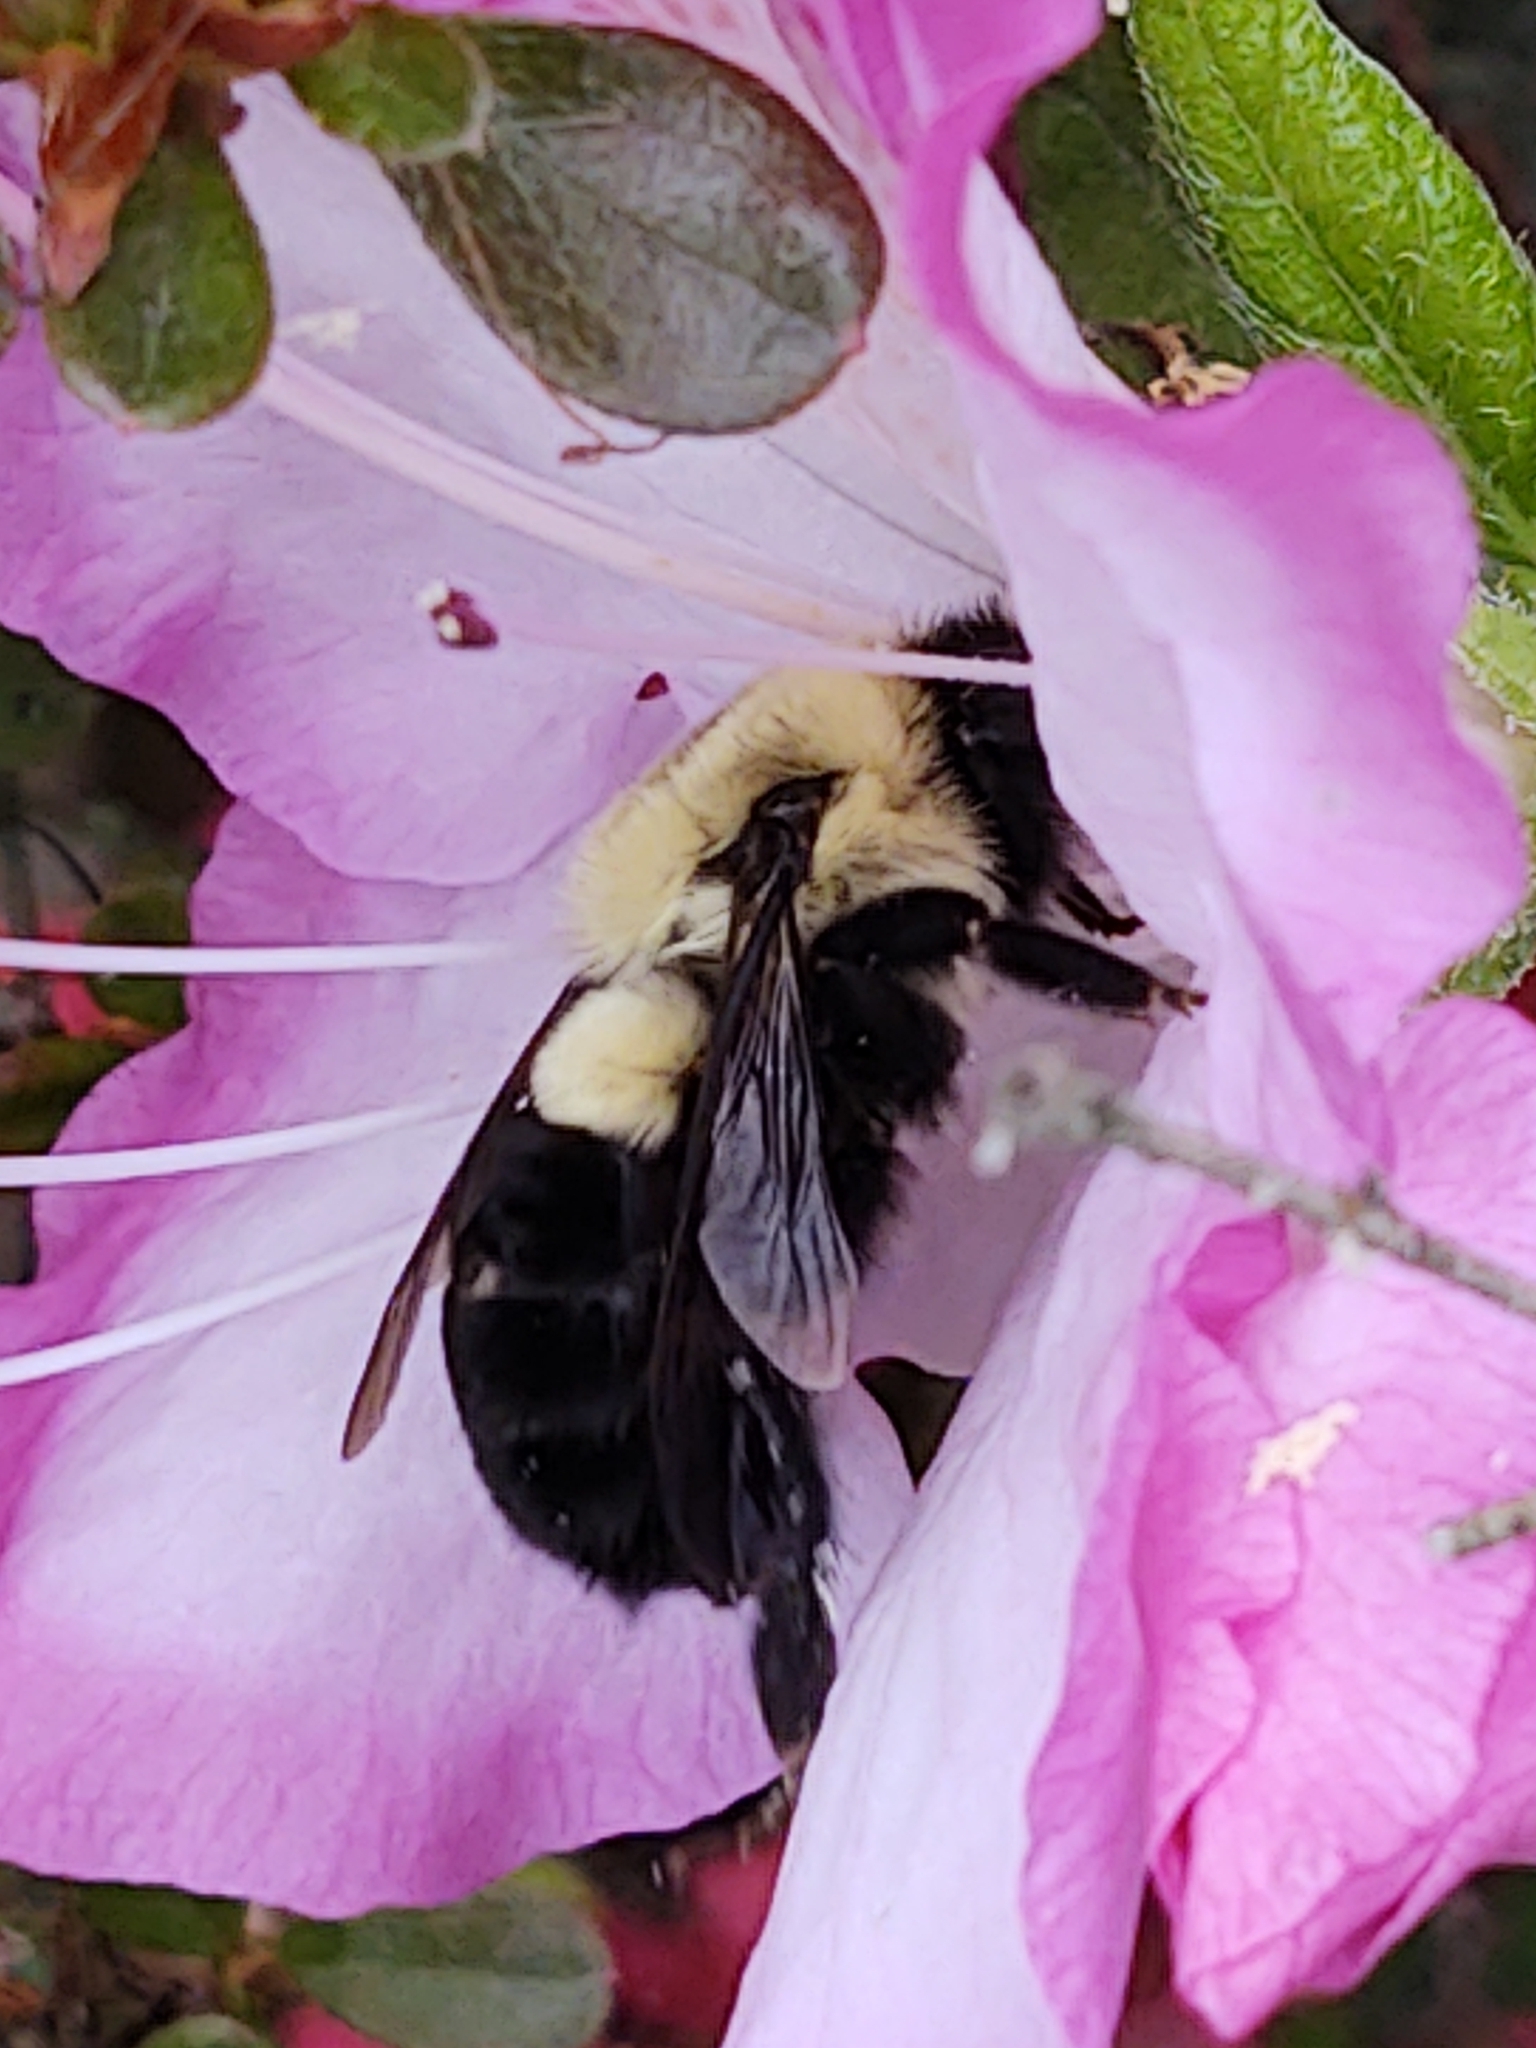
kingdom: Animalia
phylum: Arthropoda
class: Insecta
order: Hymenoptera
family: Apidae
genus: Bombus
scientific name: Bombus impatiens
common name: Common eastern bumble bee
